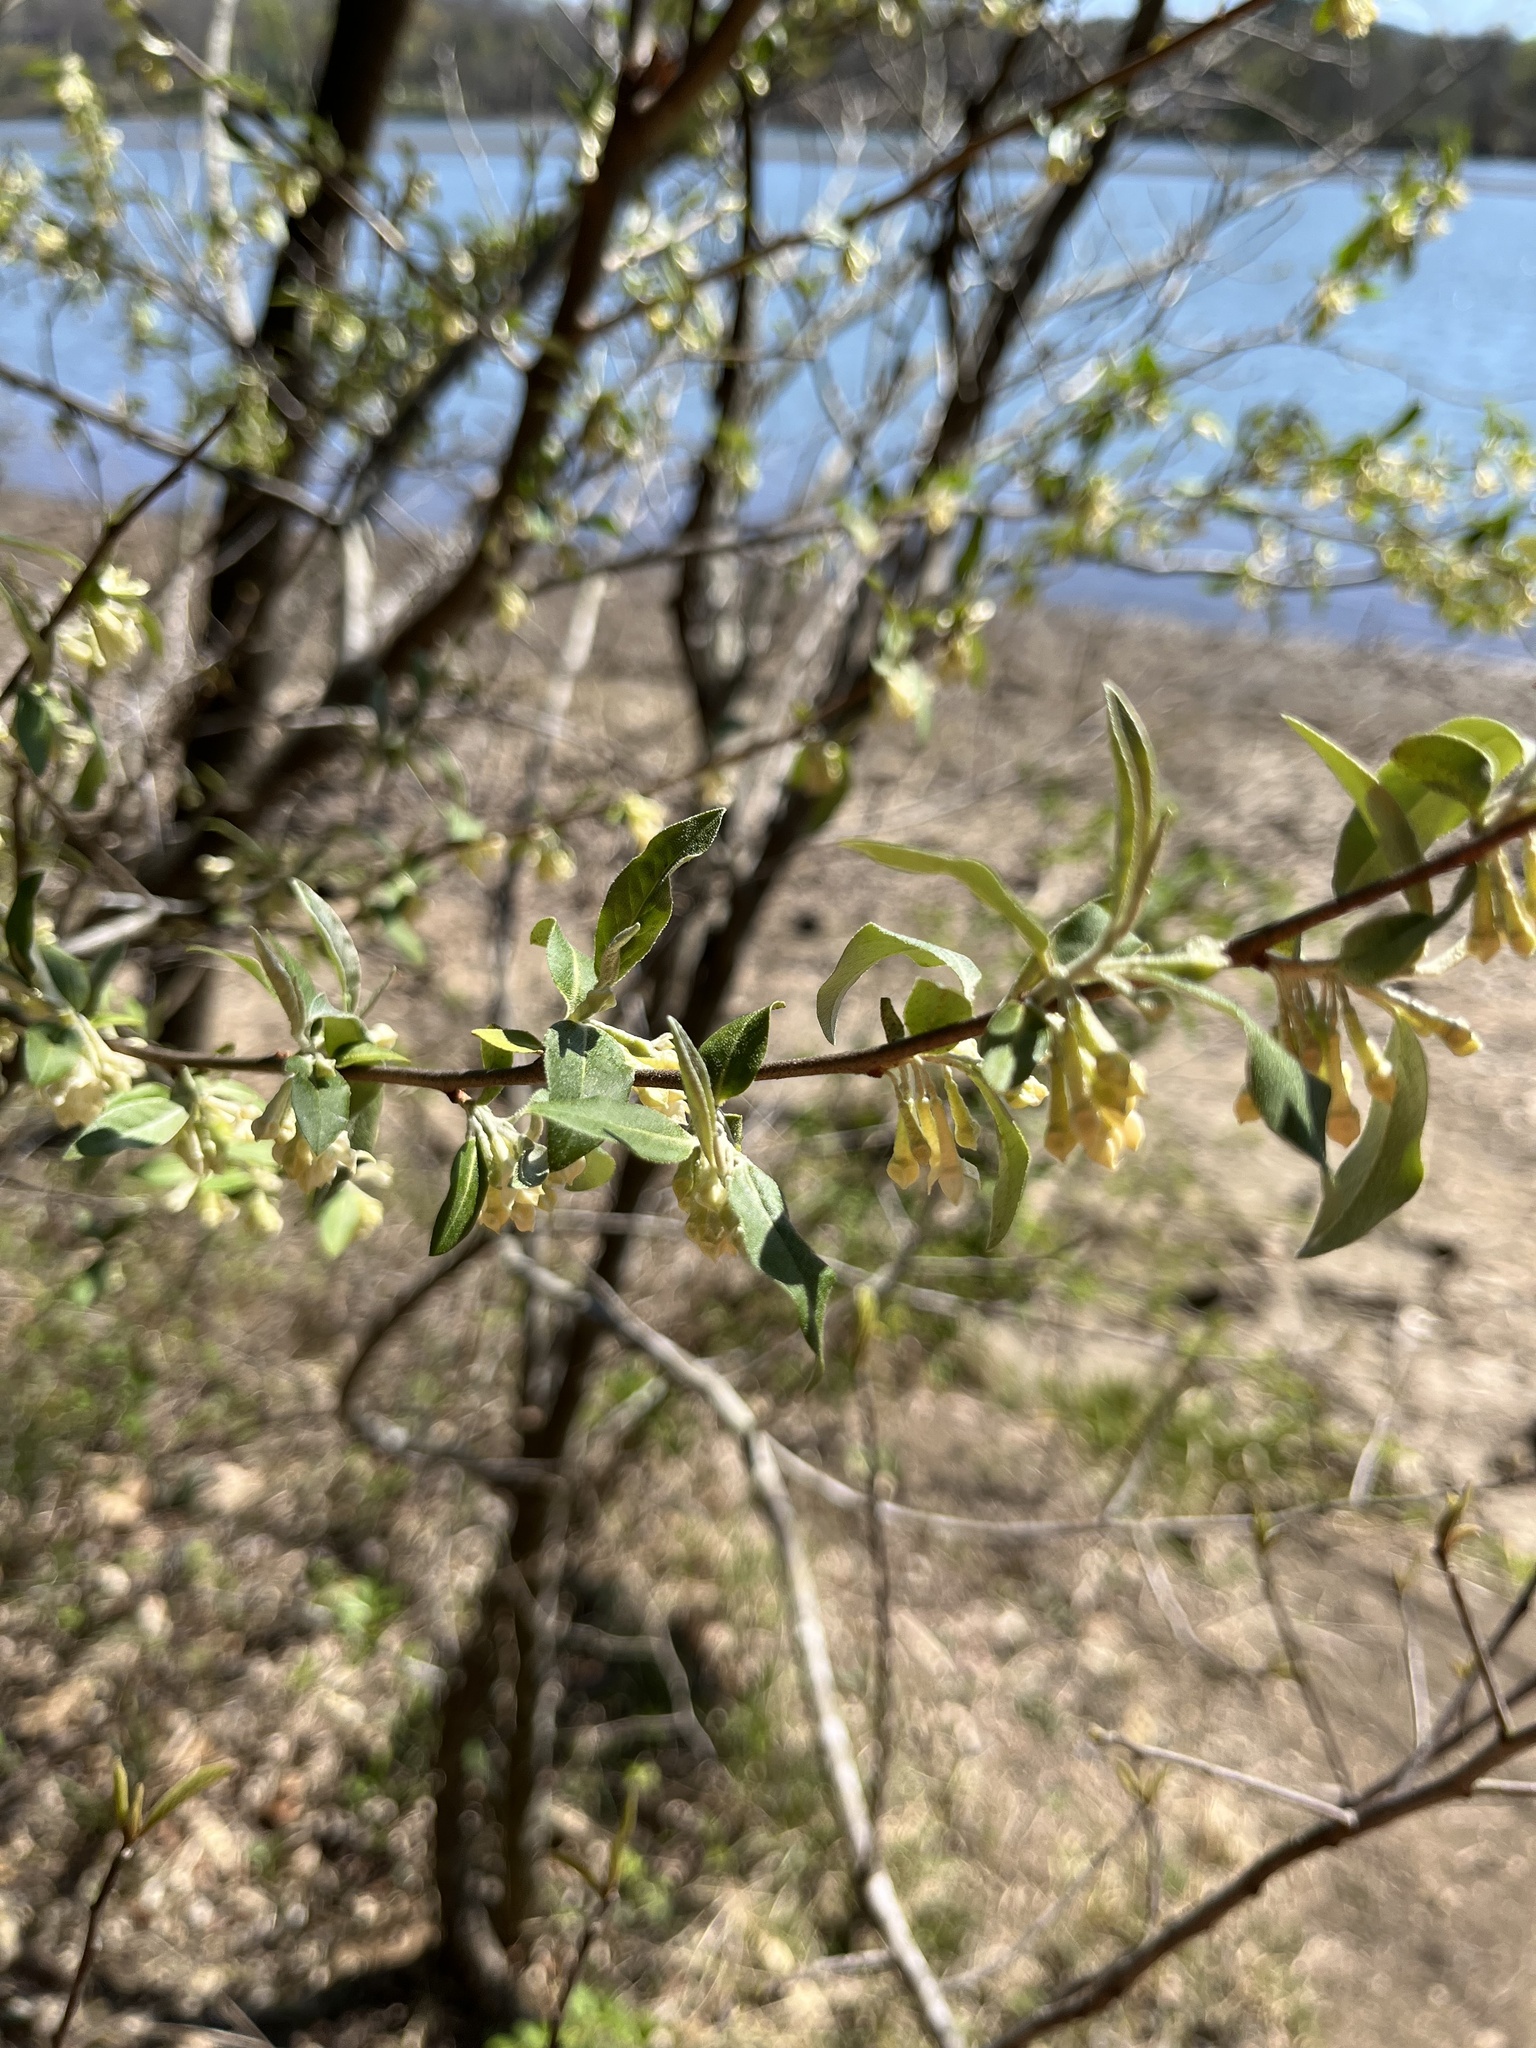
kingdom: Plantae
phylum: Tracheophyta
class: Magnoliopsida
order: Rosales
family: Elaeagnaceae
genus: Elaeagnus
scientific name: Elaeagnus umbellata
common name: Autumn olive
